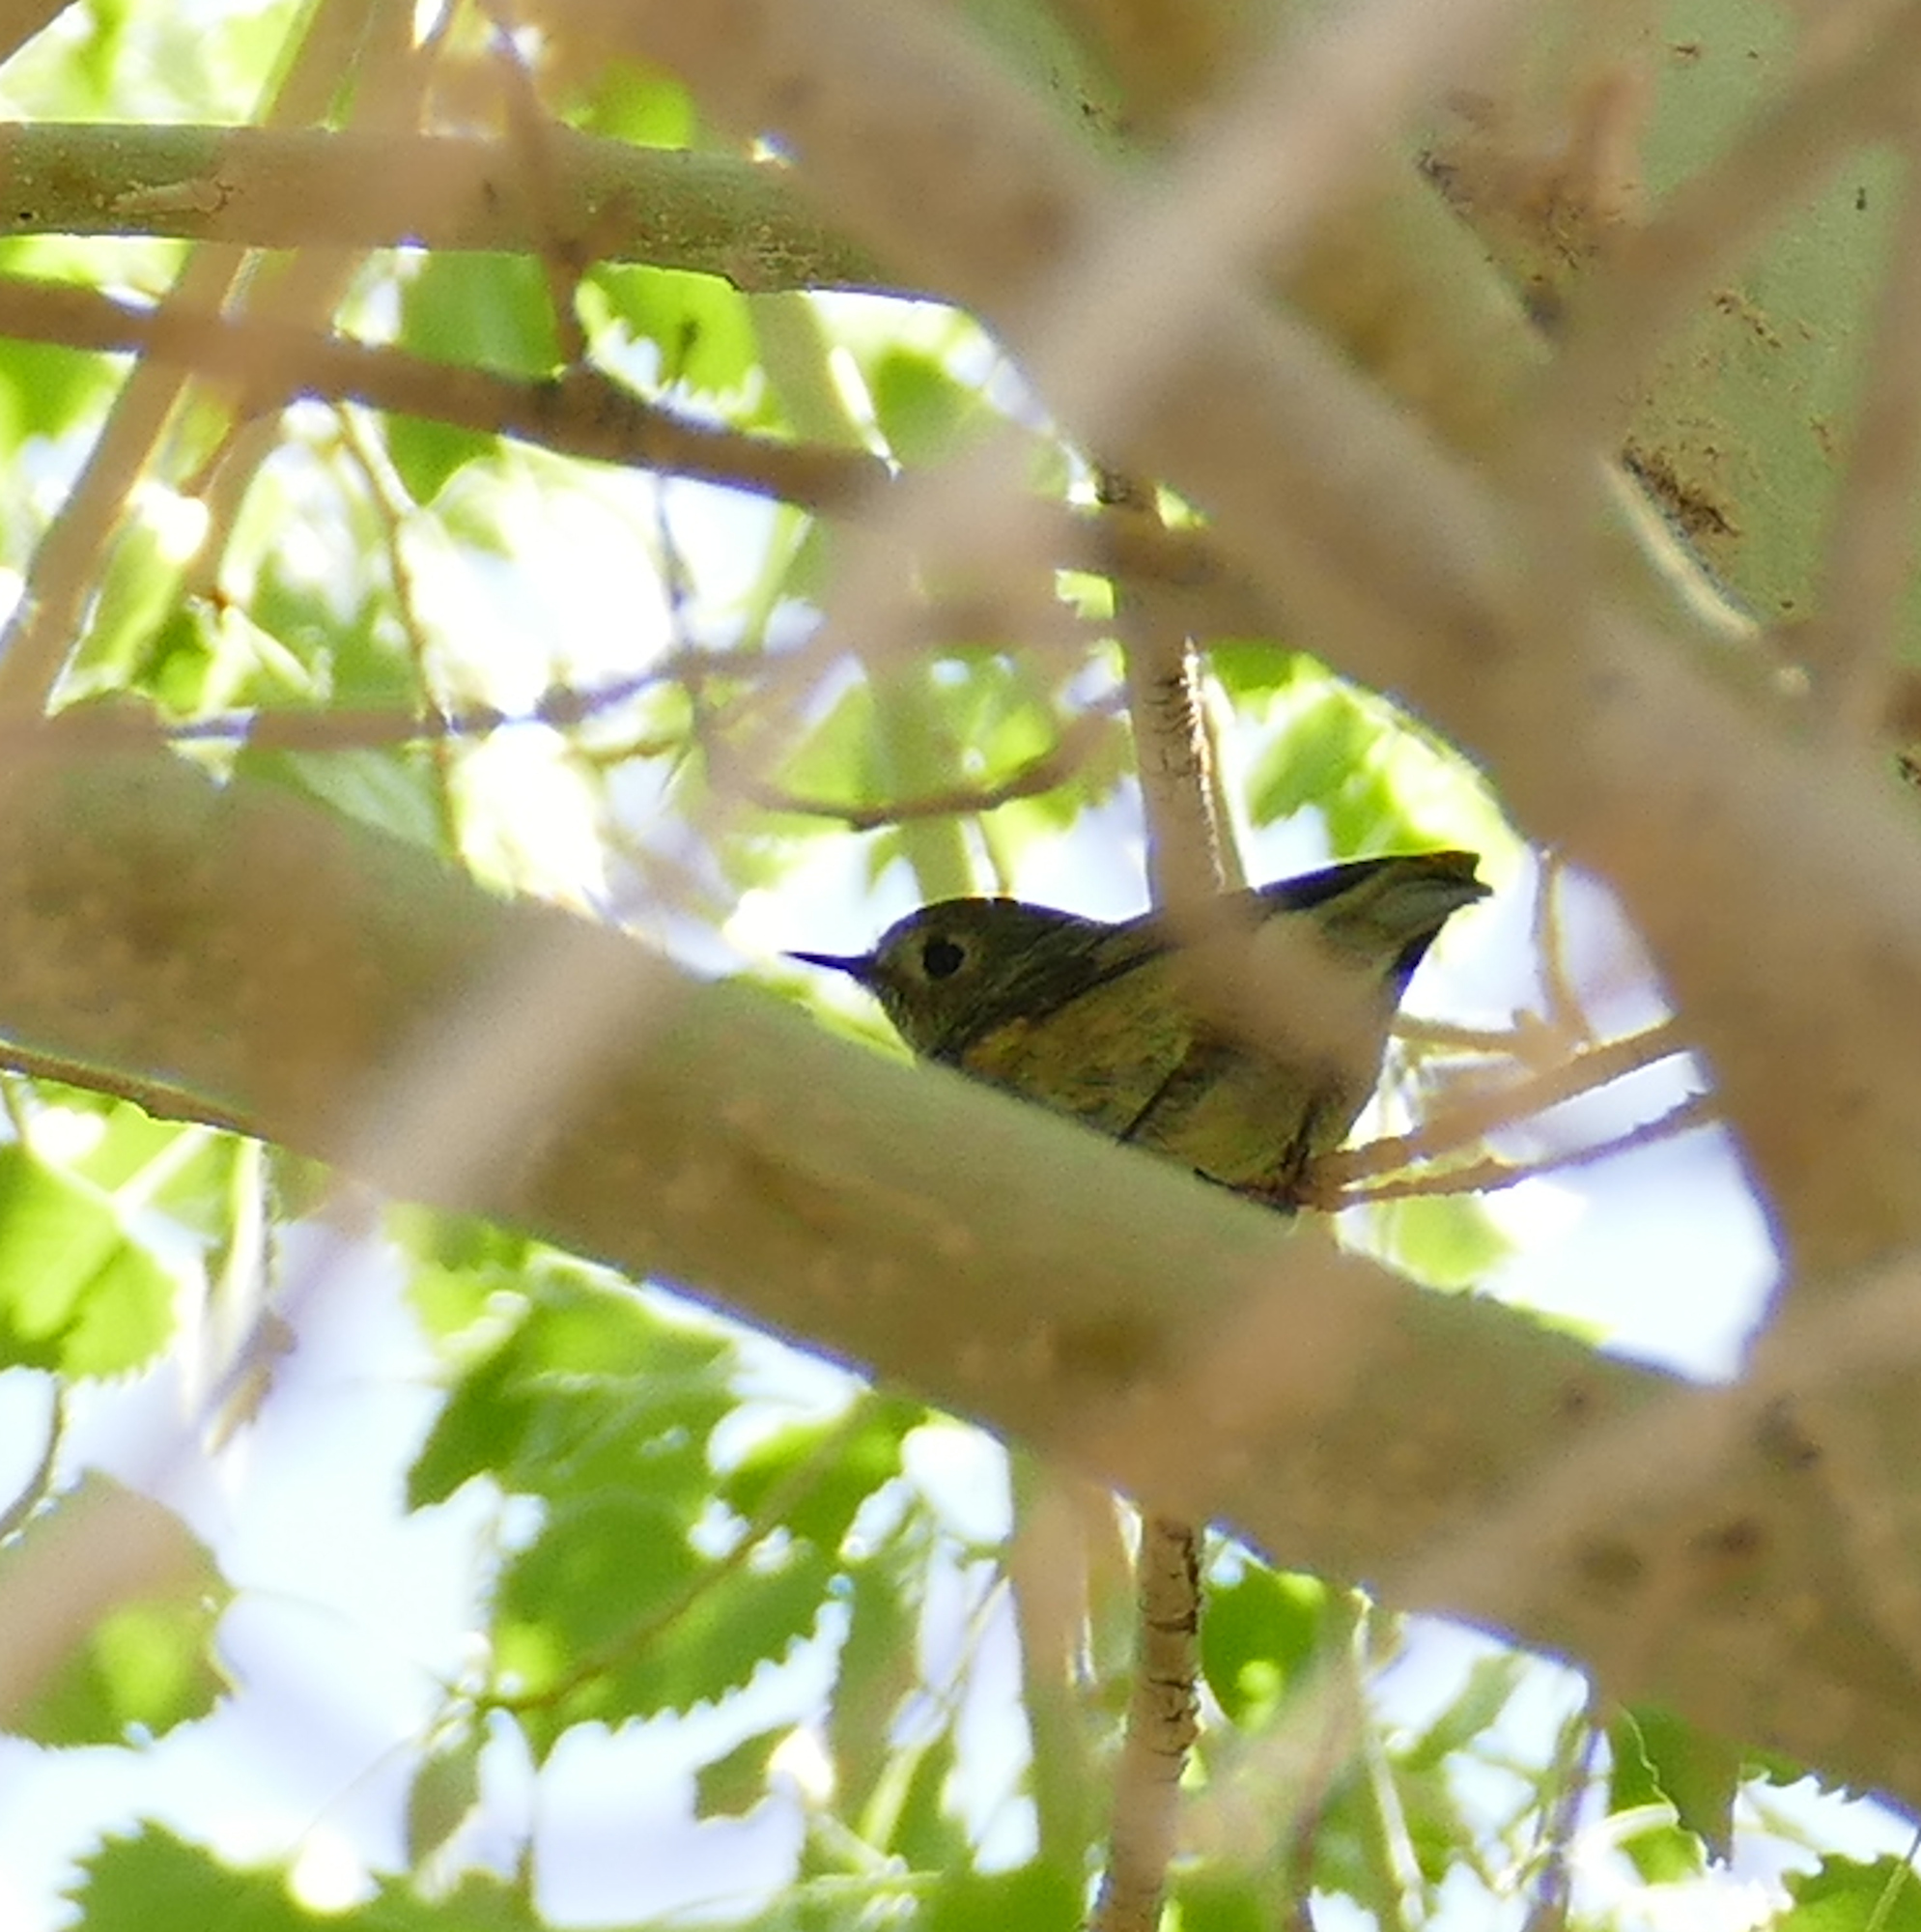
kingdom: Animalia
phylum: Chordata
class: Aves
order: Passeriformes
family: Regulidae
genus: Regulus
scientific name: Regulus calendula
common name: Ruby-crowned kinglet
